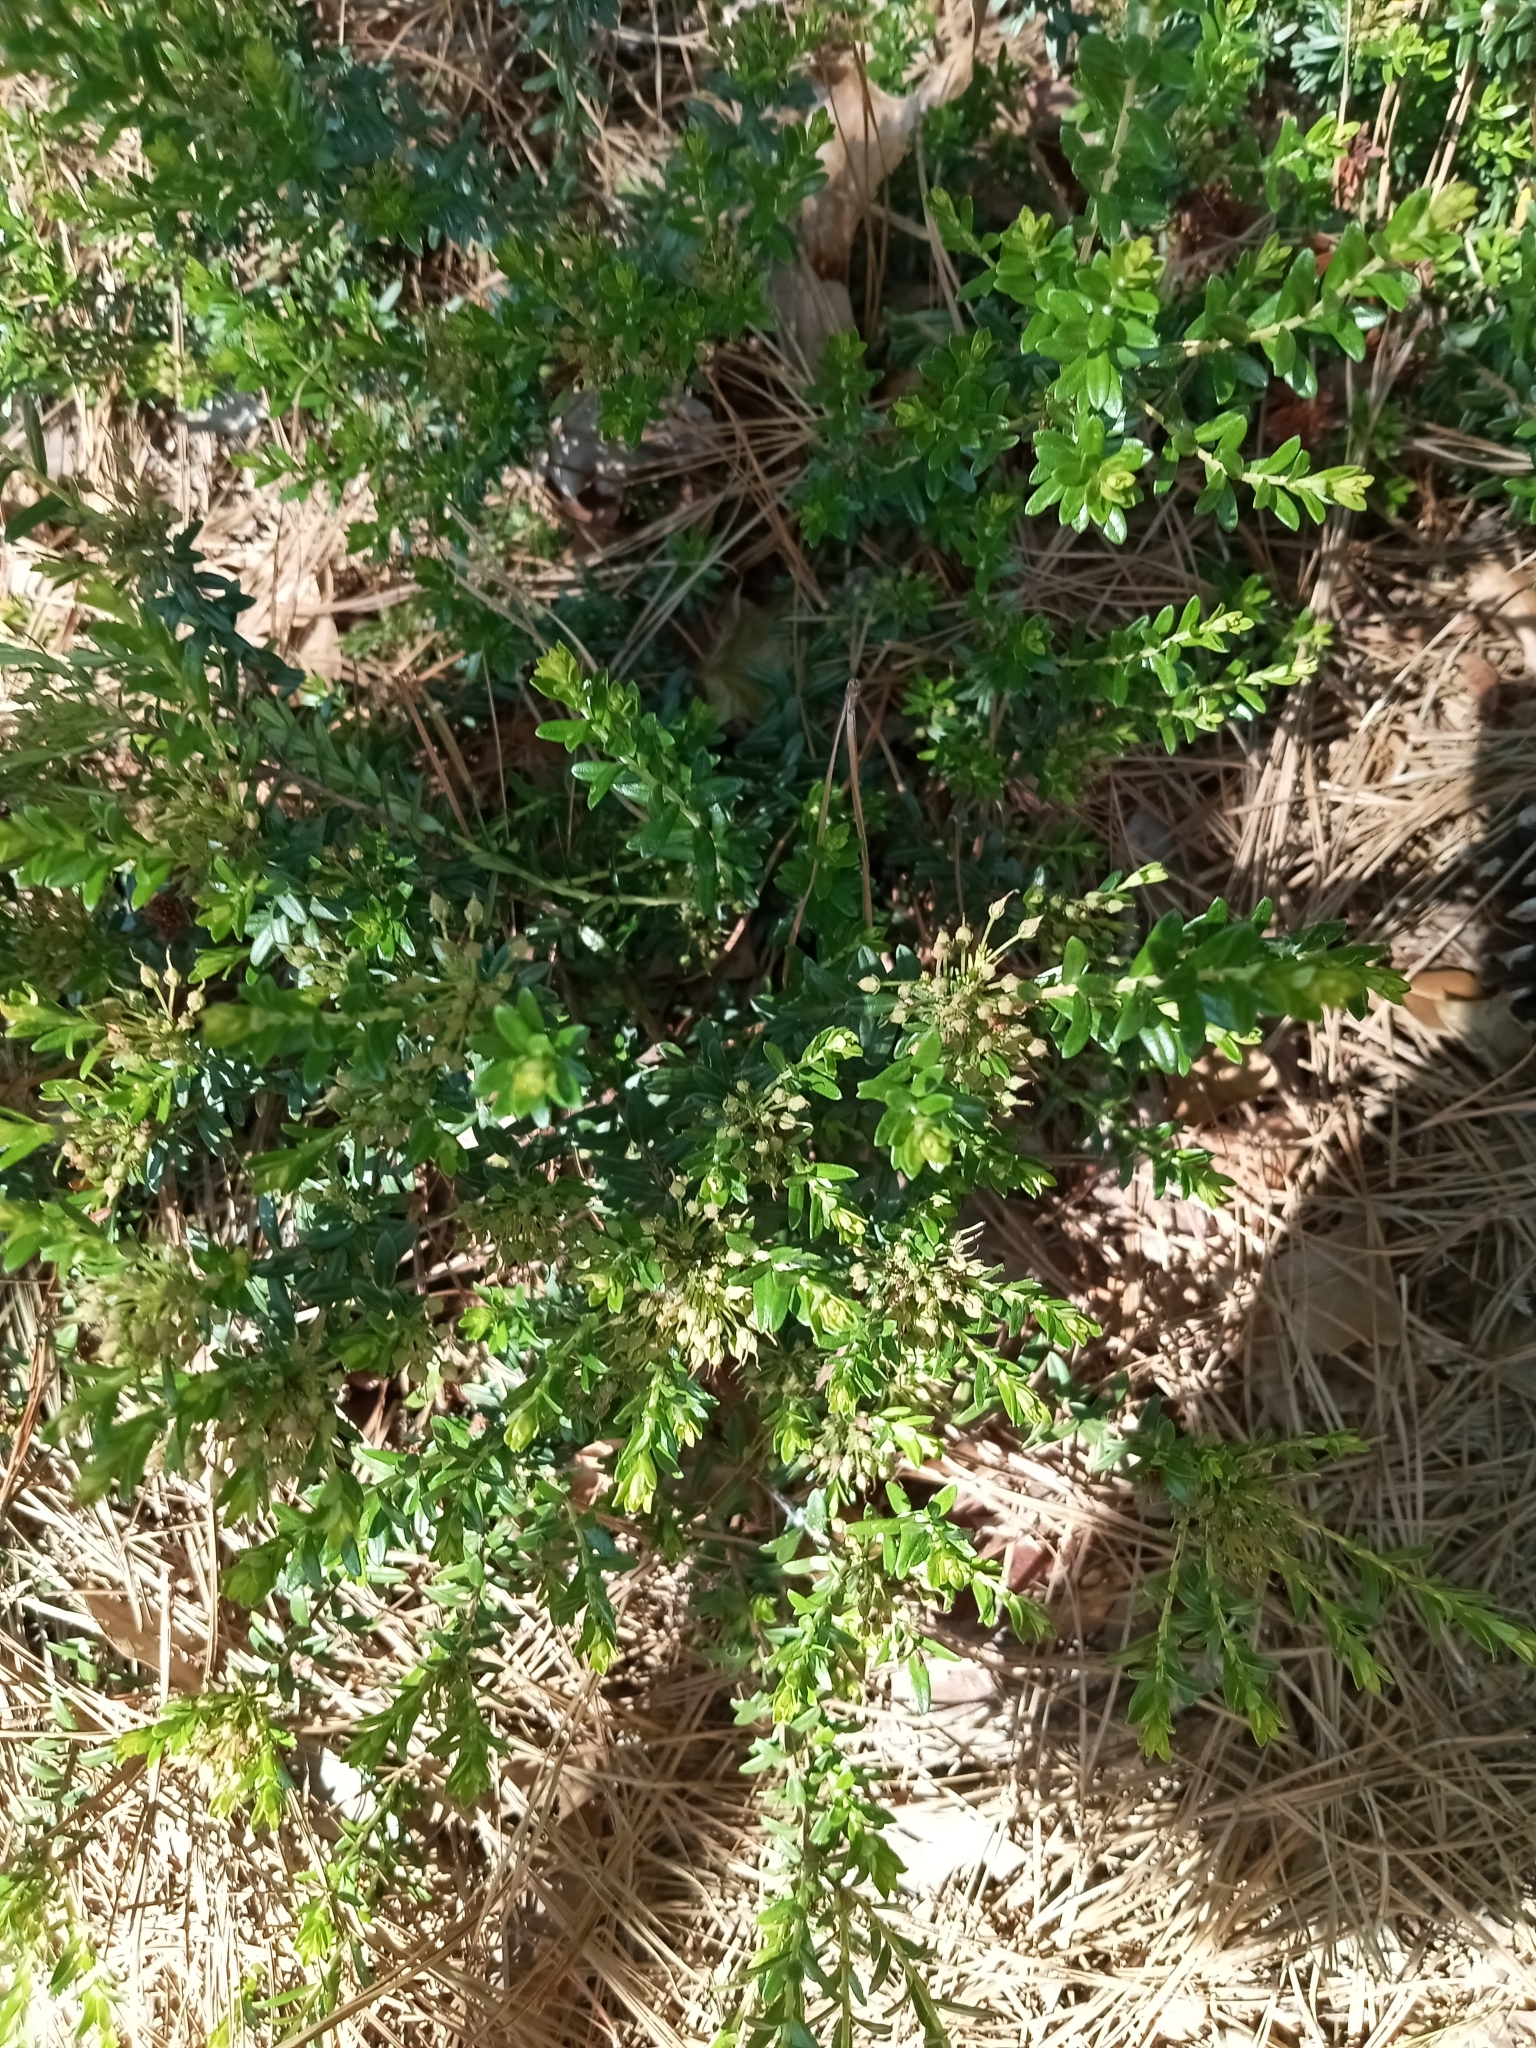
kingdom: Plantae
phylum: Tracheophyta
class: Magnoliopsida
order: Ericales
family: Ericaceae
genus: Kalmia
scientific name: Kalmia buxifolia
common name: Sandmyrtle
